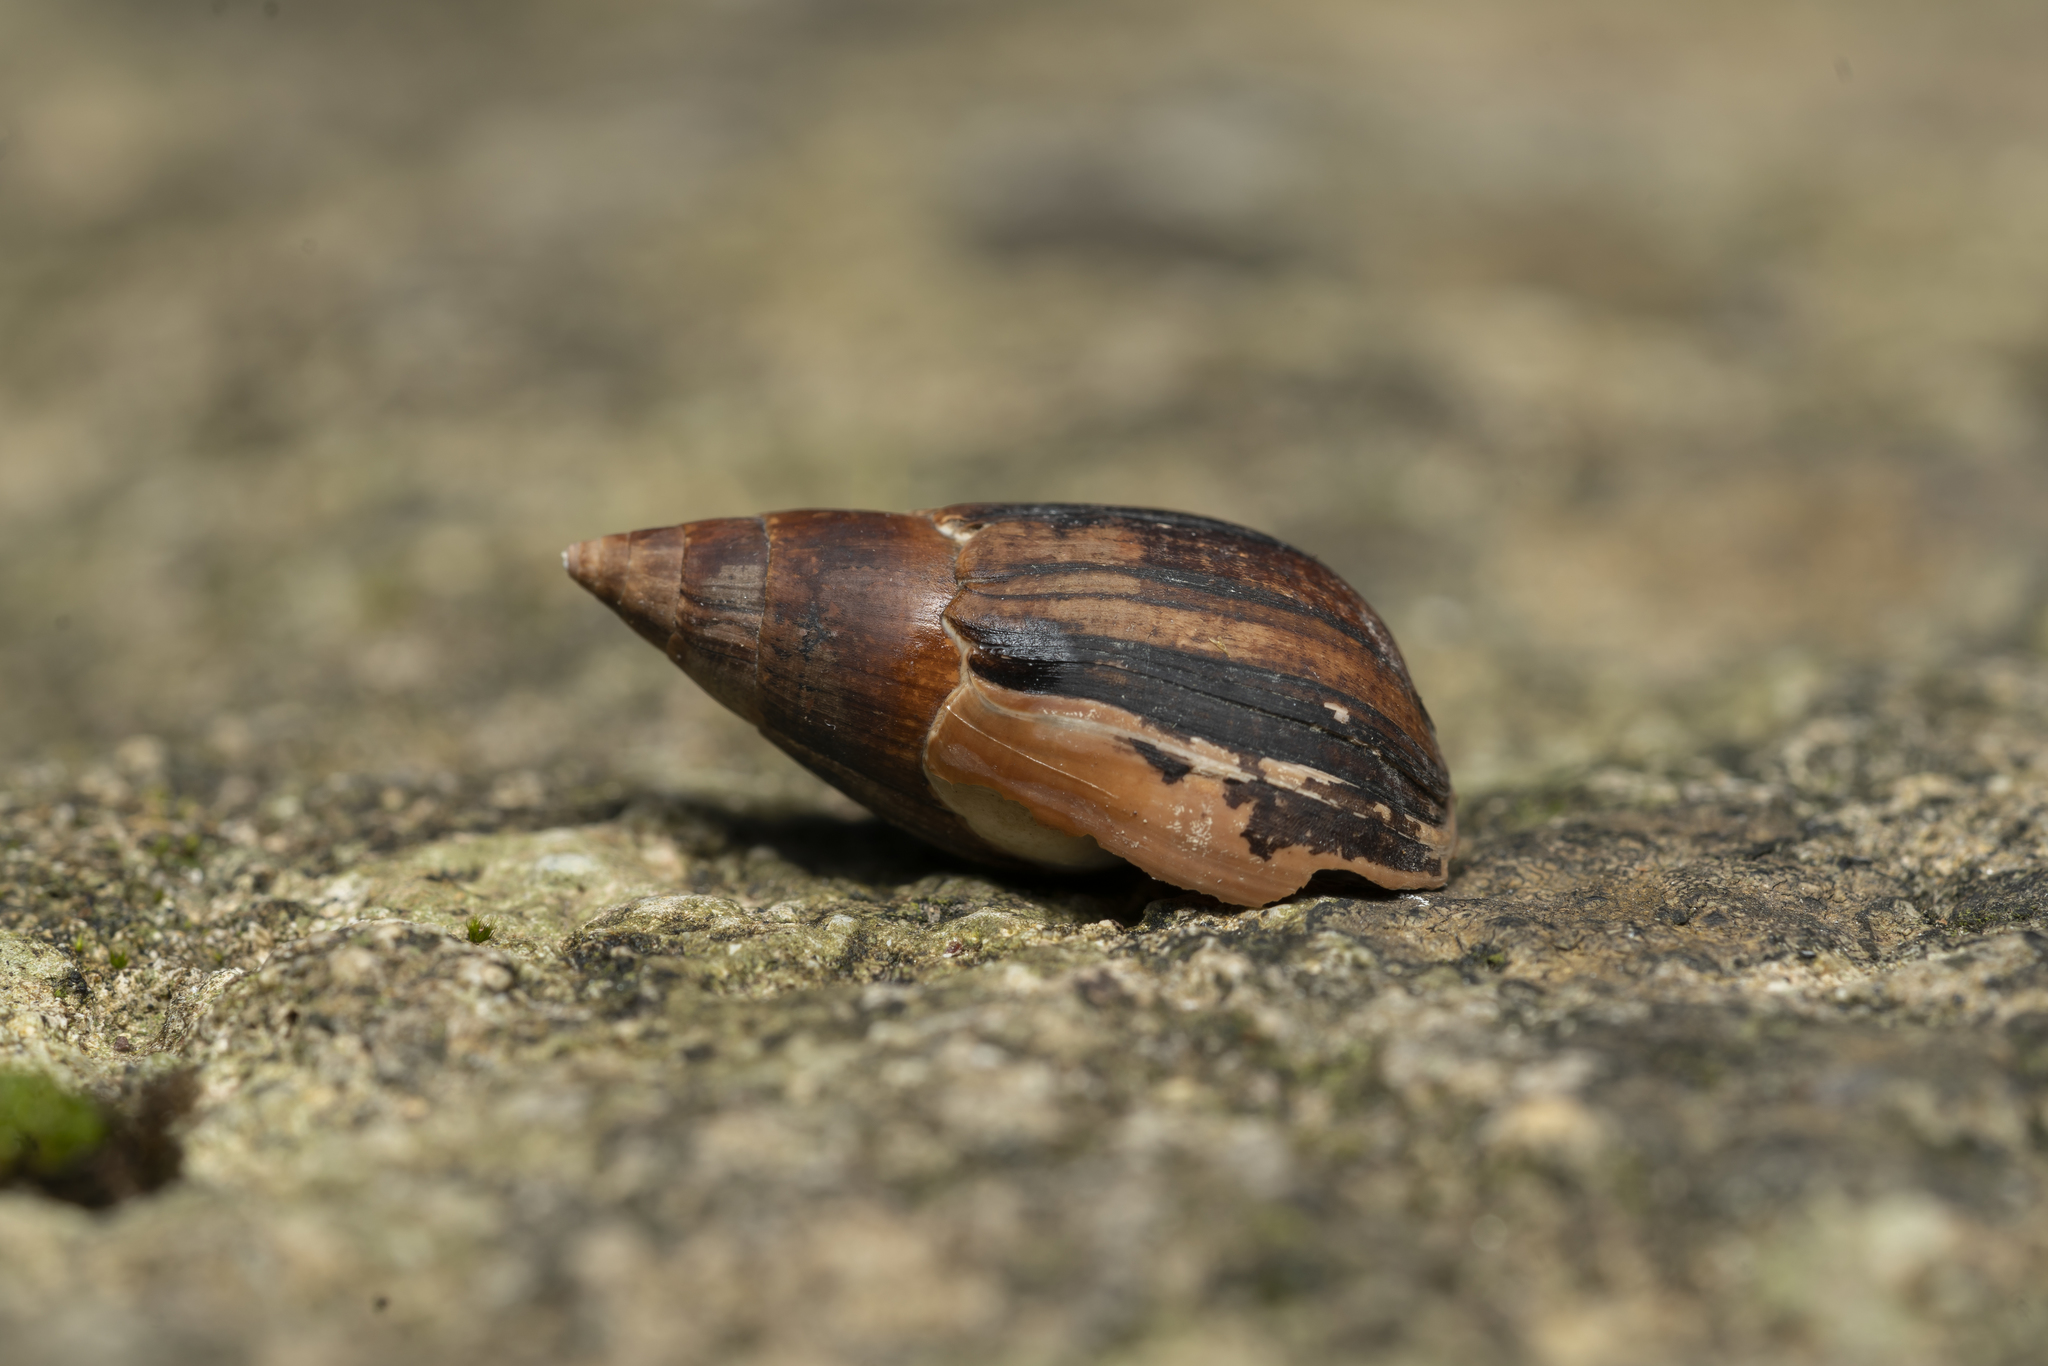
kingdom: Animalia
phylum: Mollusca
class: Gastropoda
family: Melanopsidae
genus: Melanopsis
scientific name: Melanopsis wagneri
